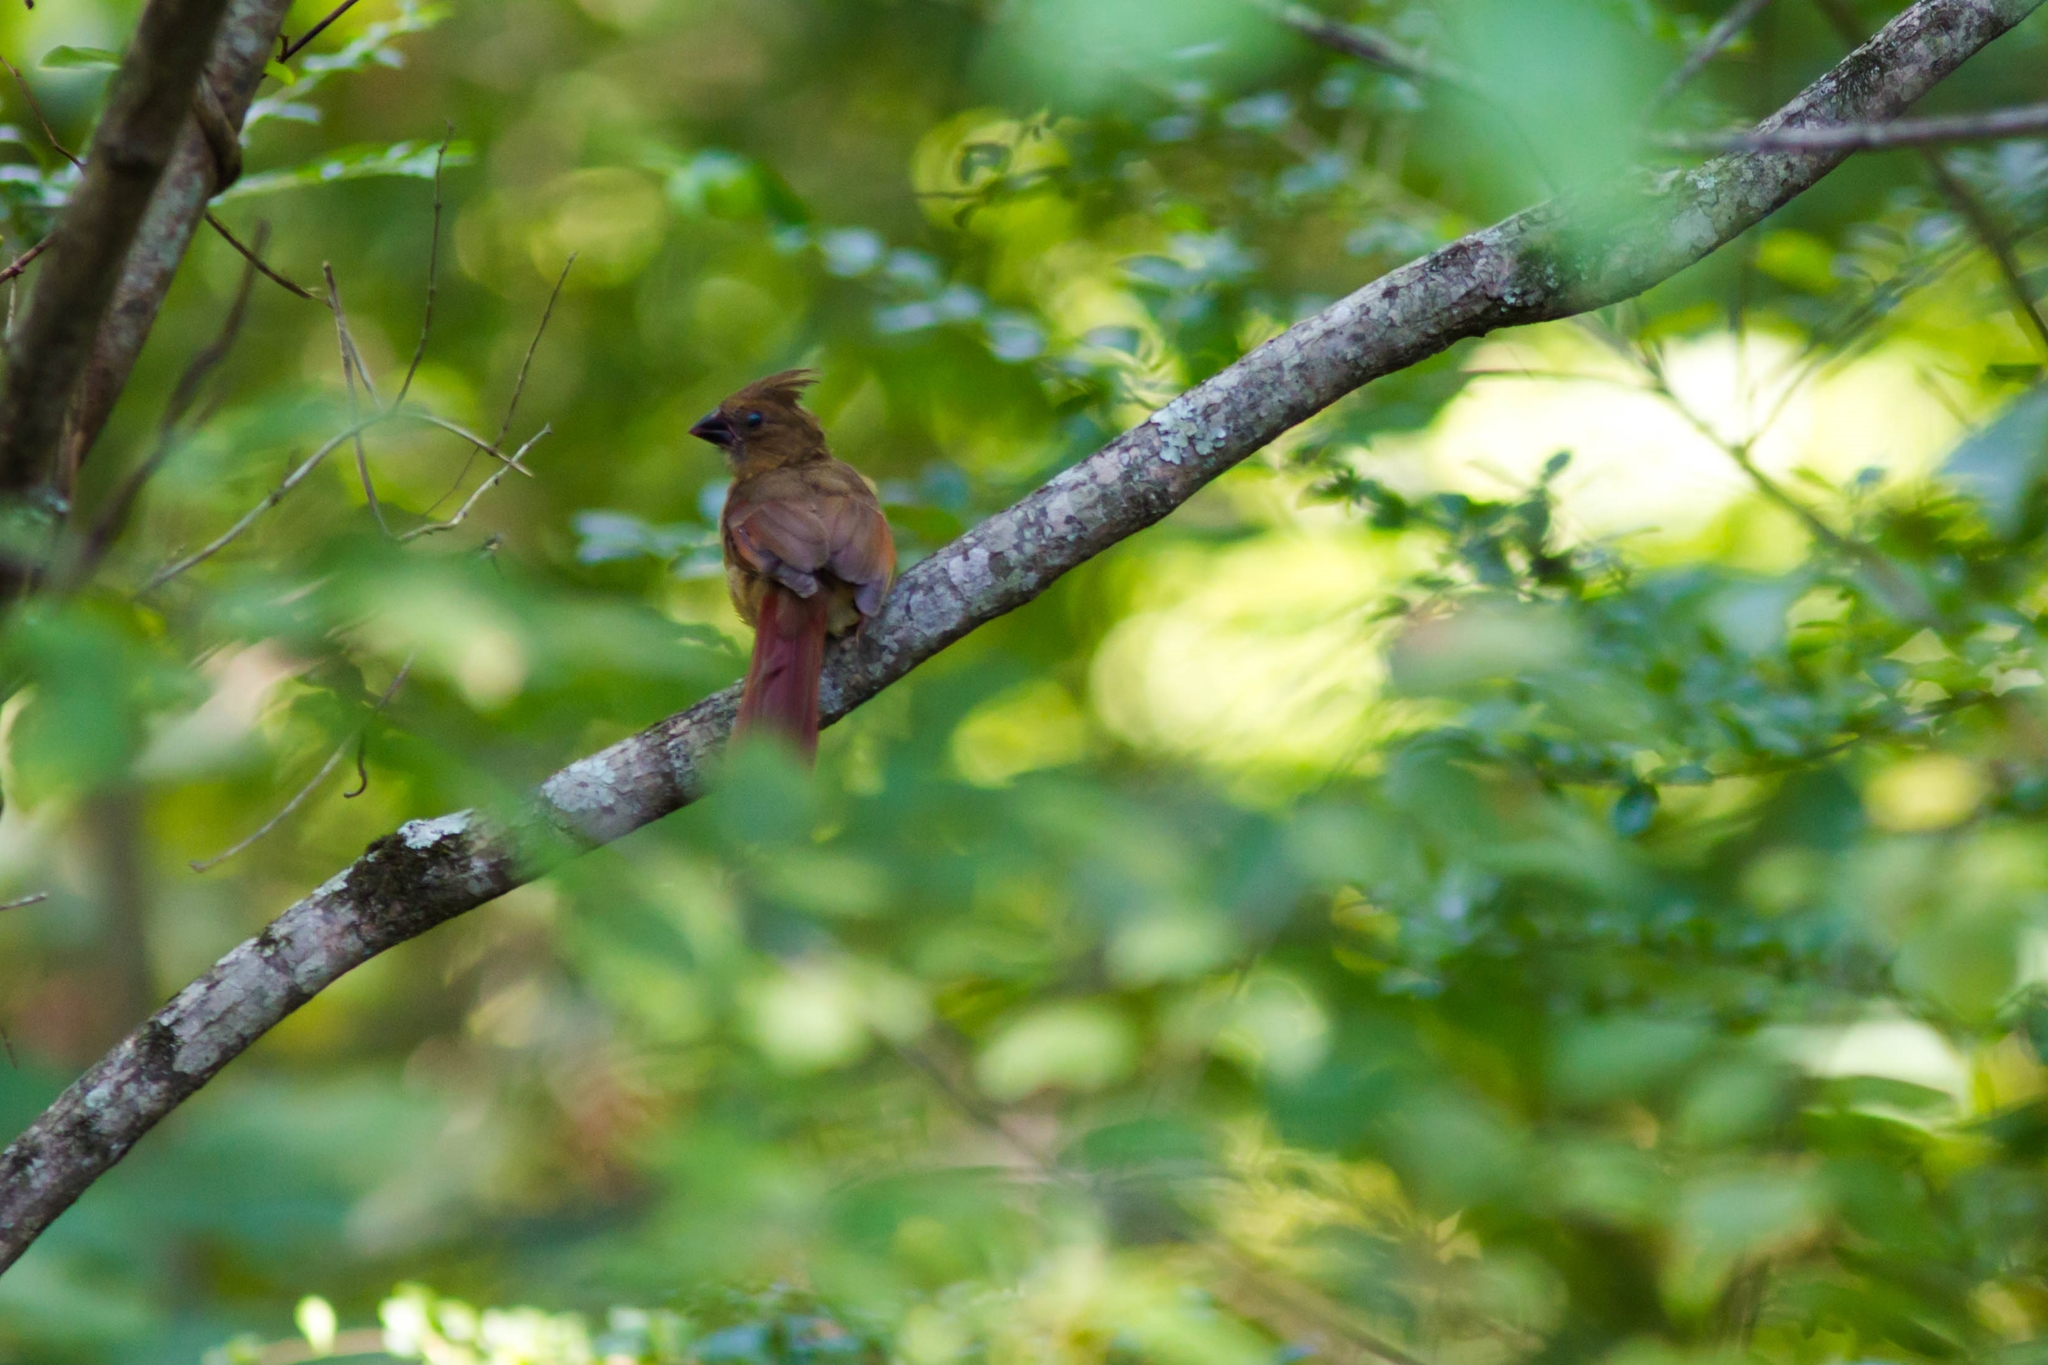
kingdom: Animalia
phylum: Chordata
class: Aves
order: Passeriformes
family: Cardinalidae
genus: Cardinalis
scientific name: Cardinalis cardinalis
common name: Northern cardinal
